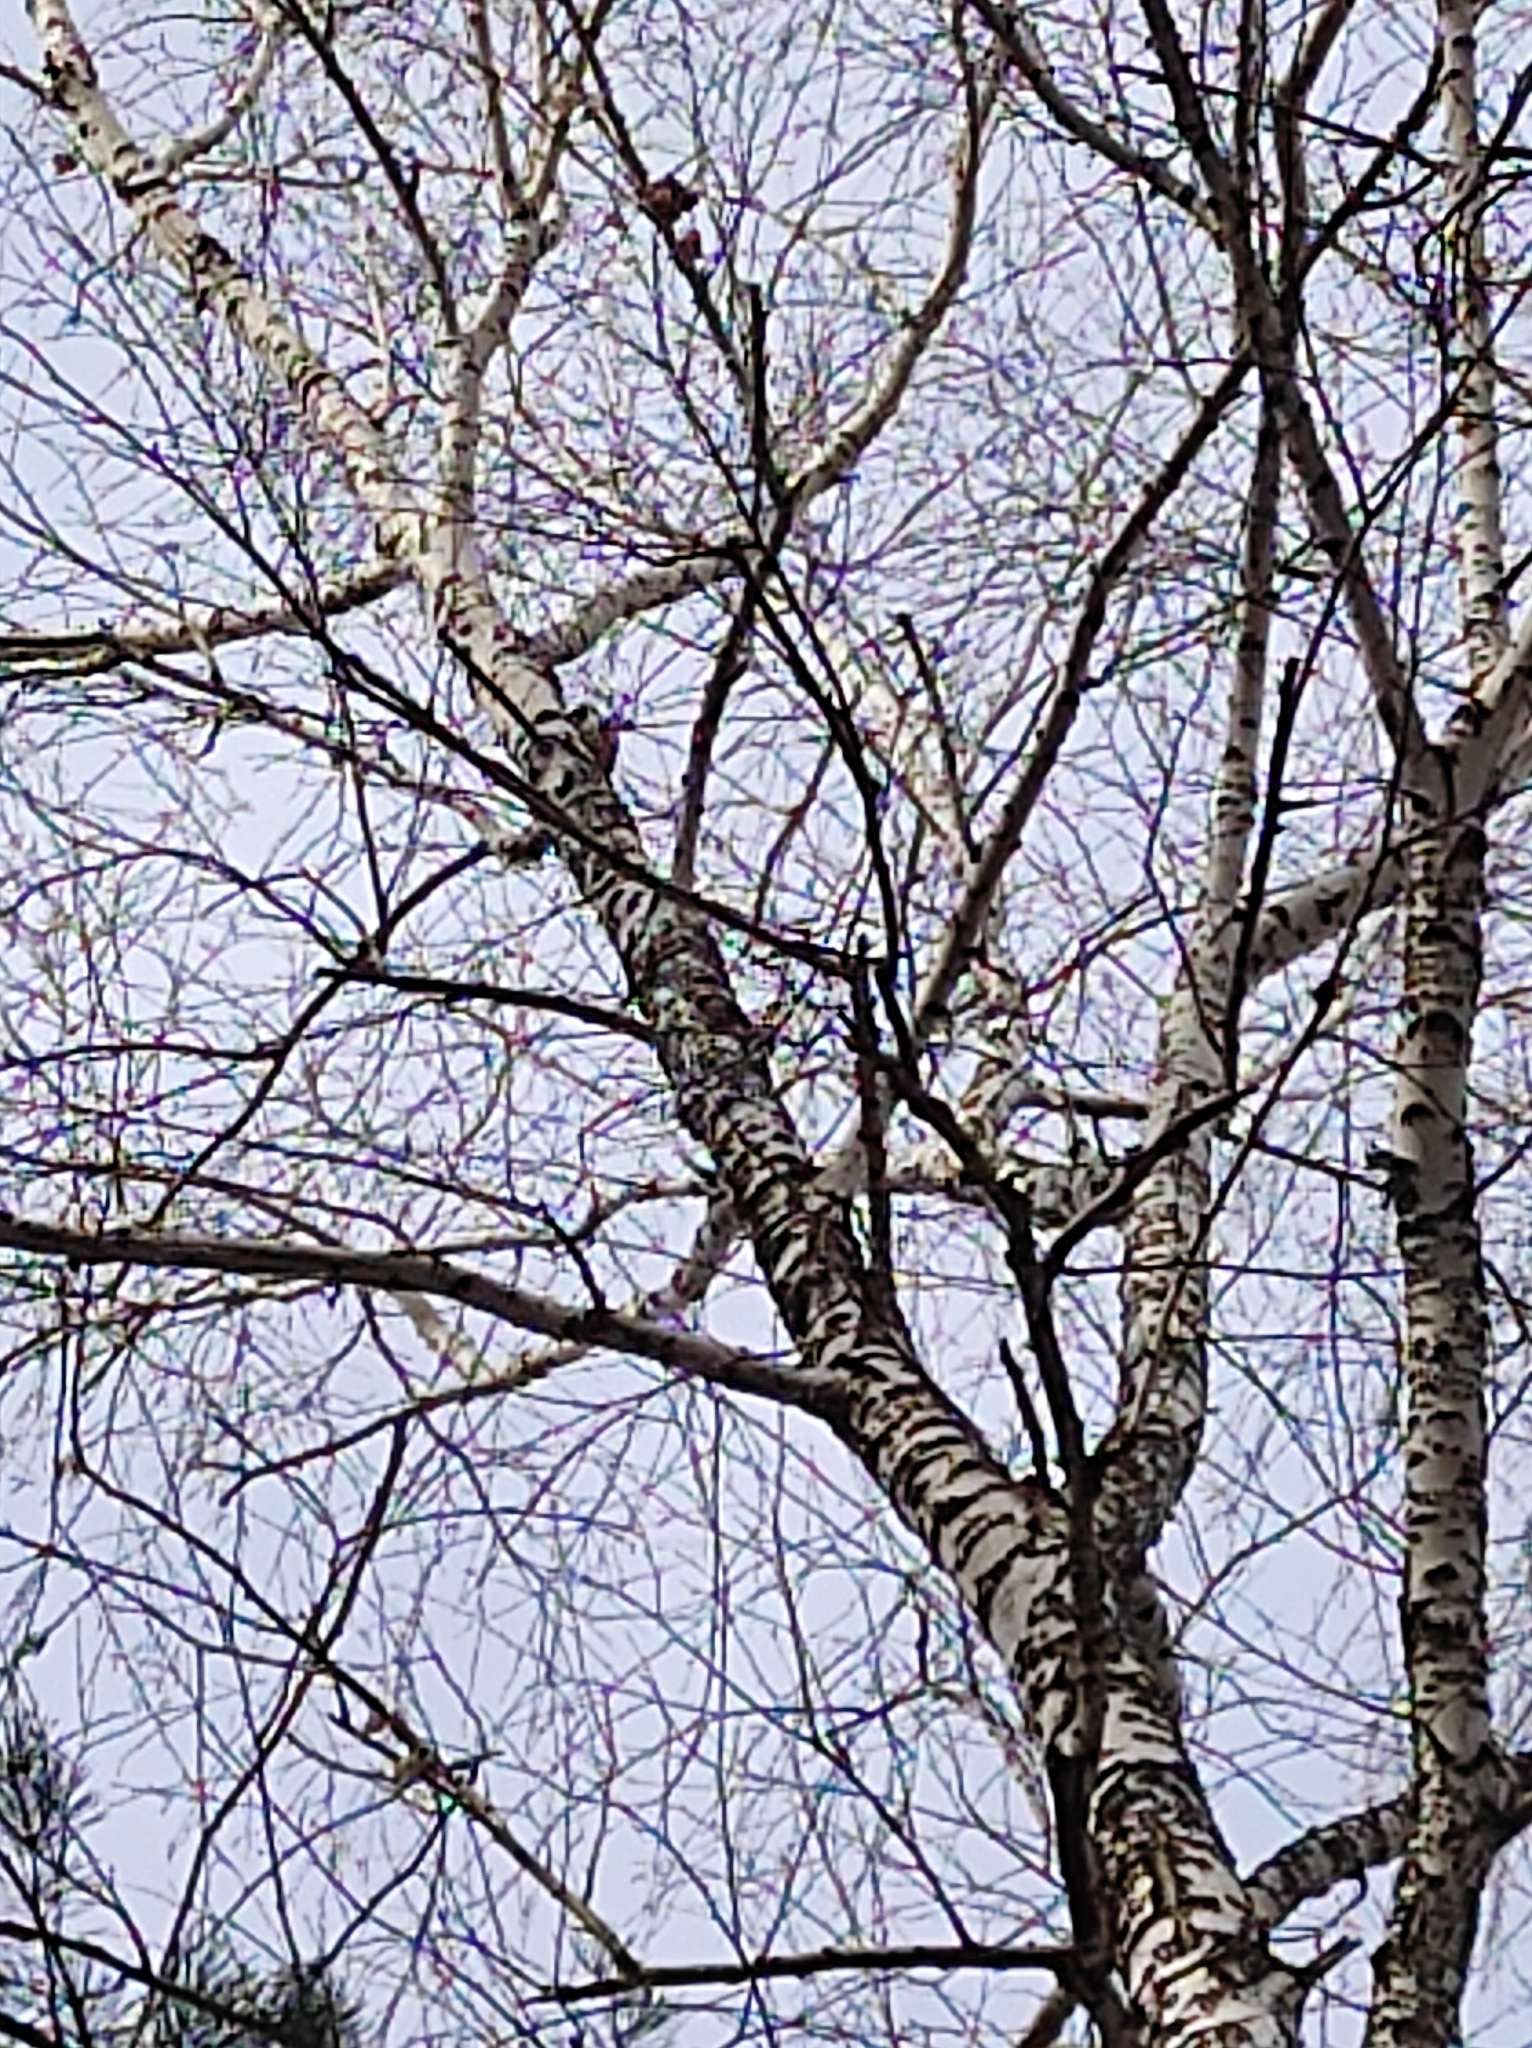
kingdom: Animalia
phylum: Chordata
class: Aves
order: Piciformes
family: Picidae
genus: Dendrocopos
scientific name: Dendrocopos major
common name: Great spotted woodpecker
